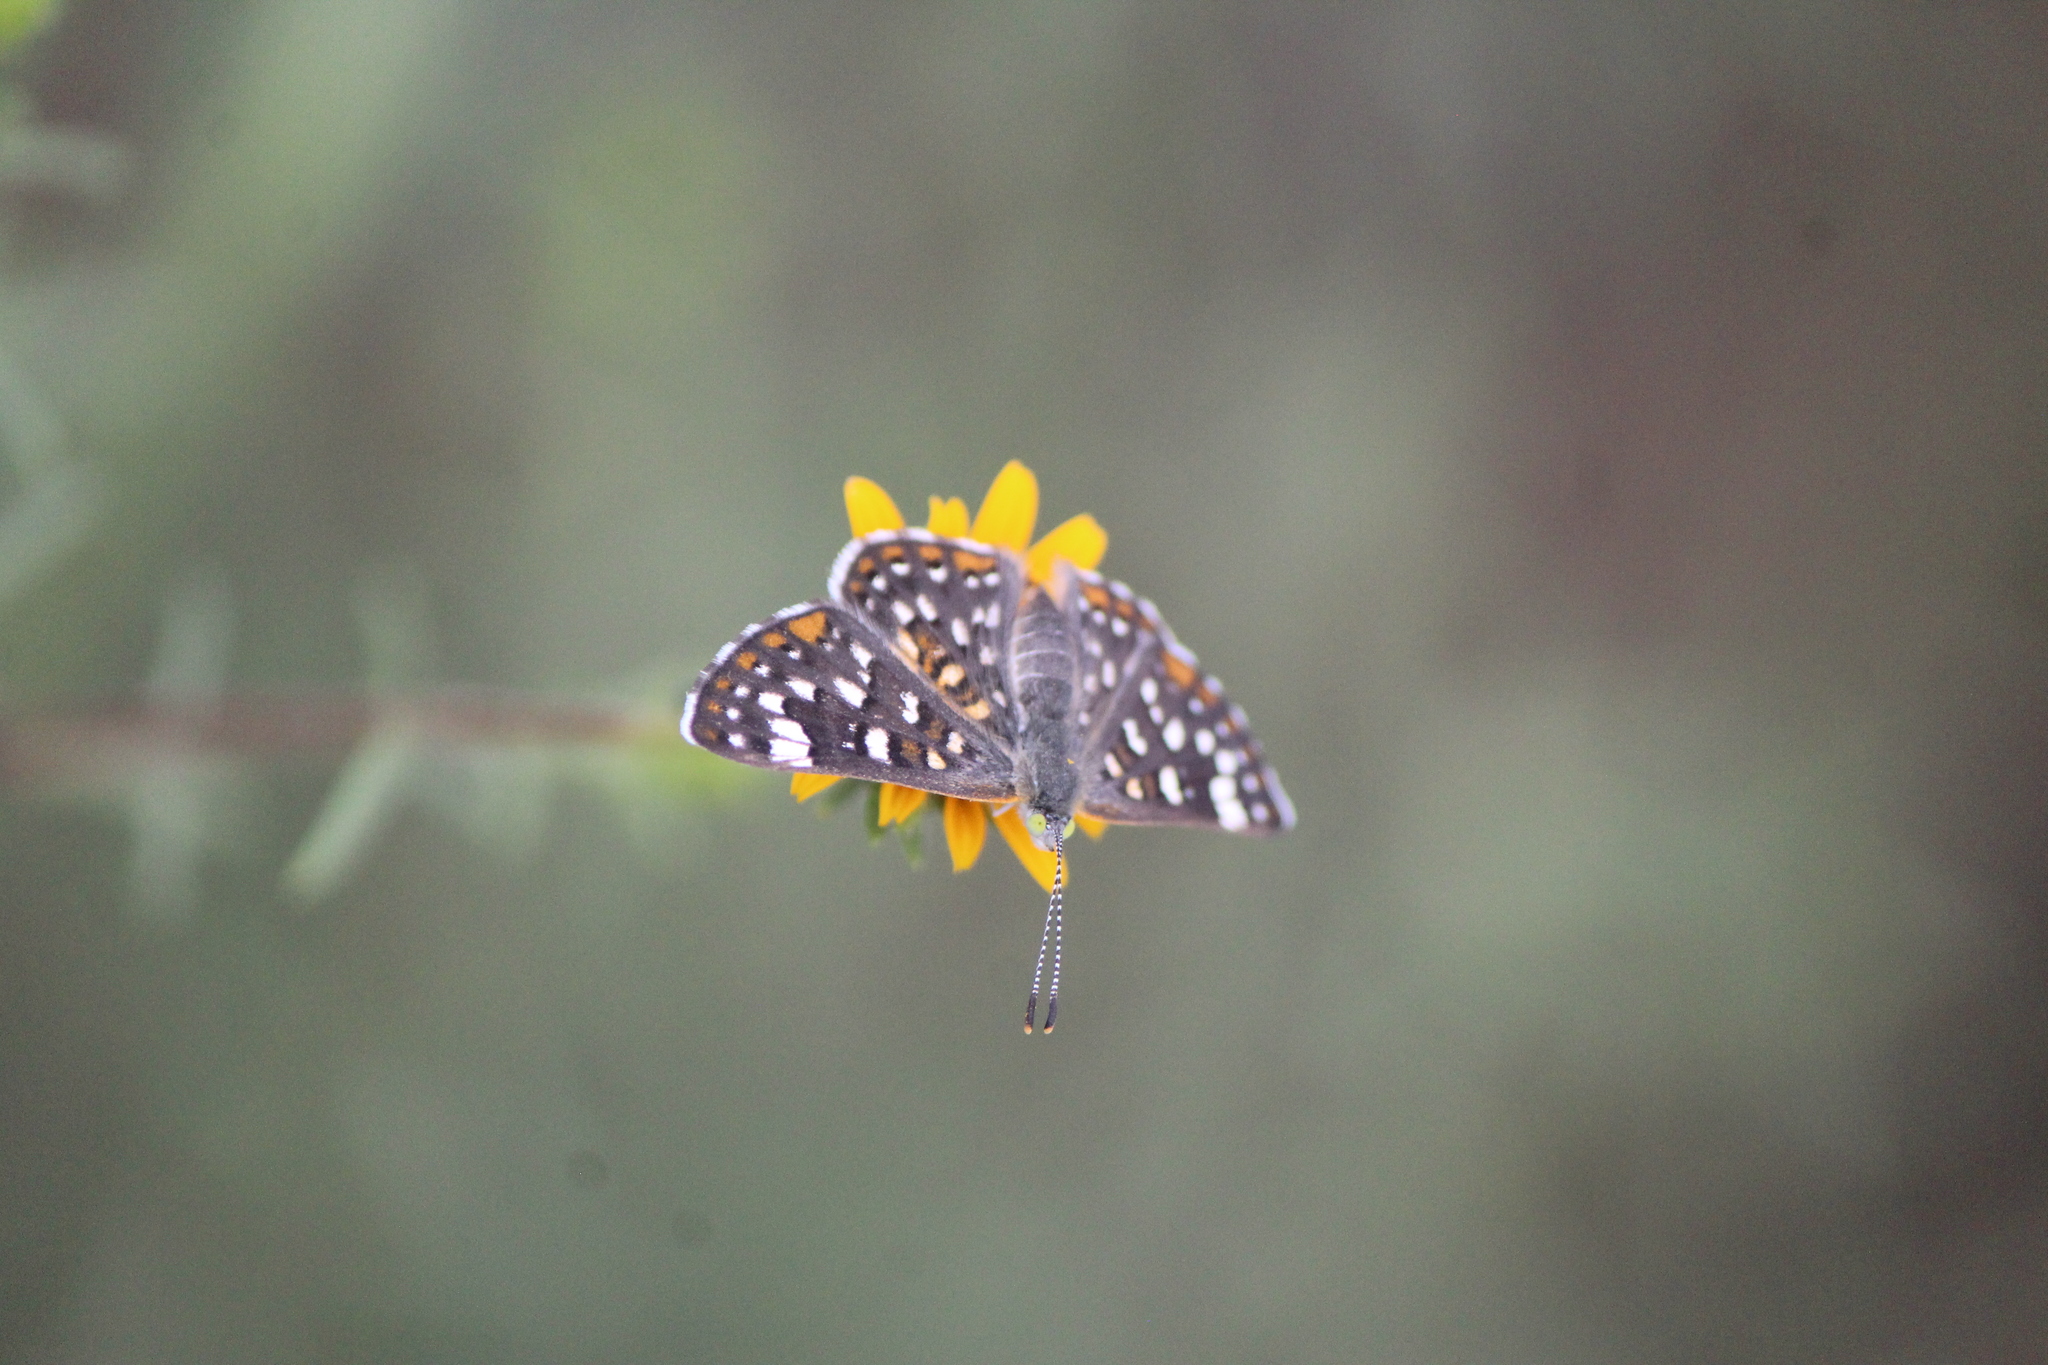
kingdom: Animalia
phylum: Arthropoda
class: Insecta
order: Lepidoptera
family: Riodinidae
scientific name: Riodinidae
